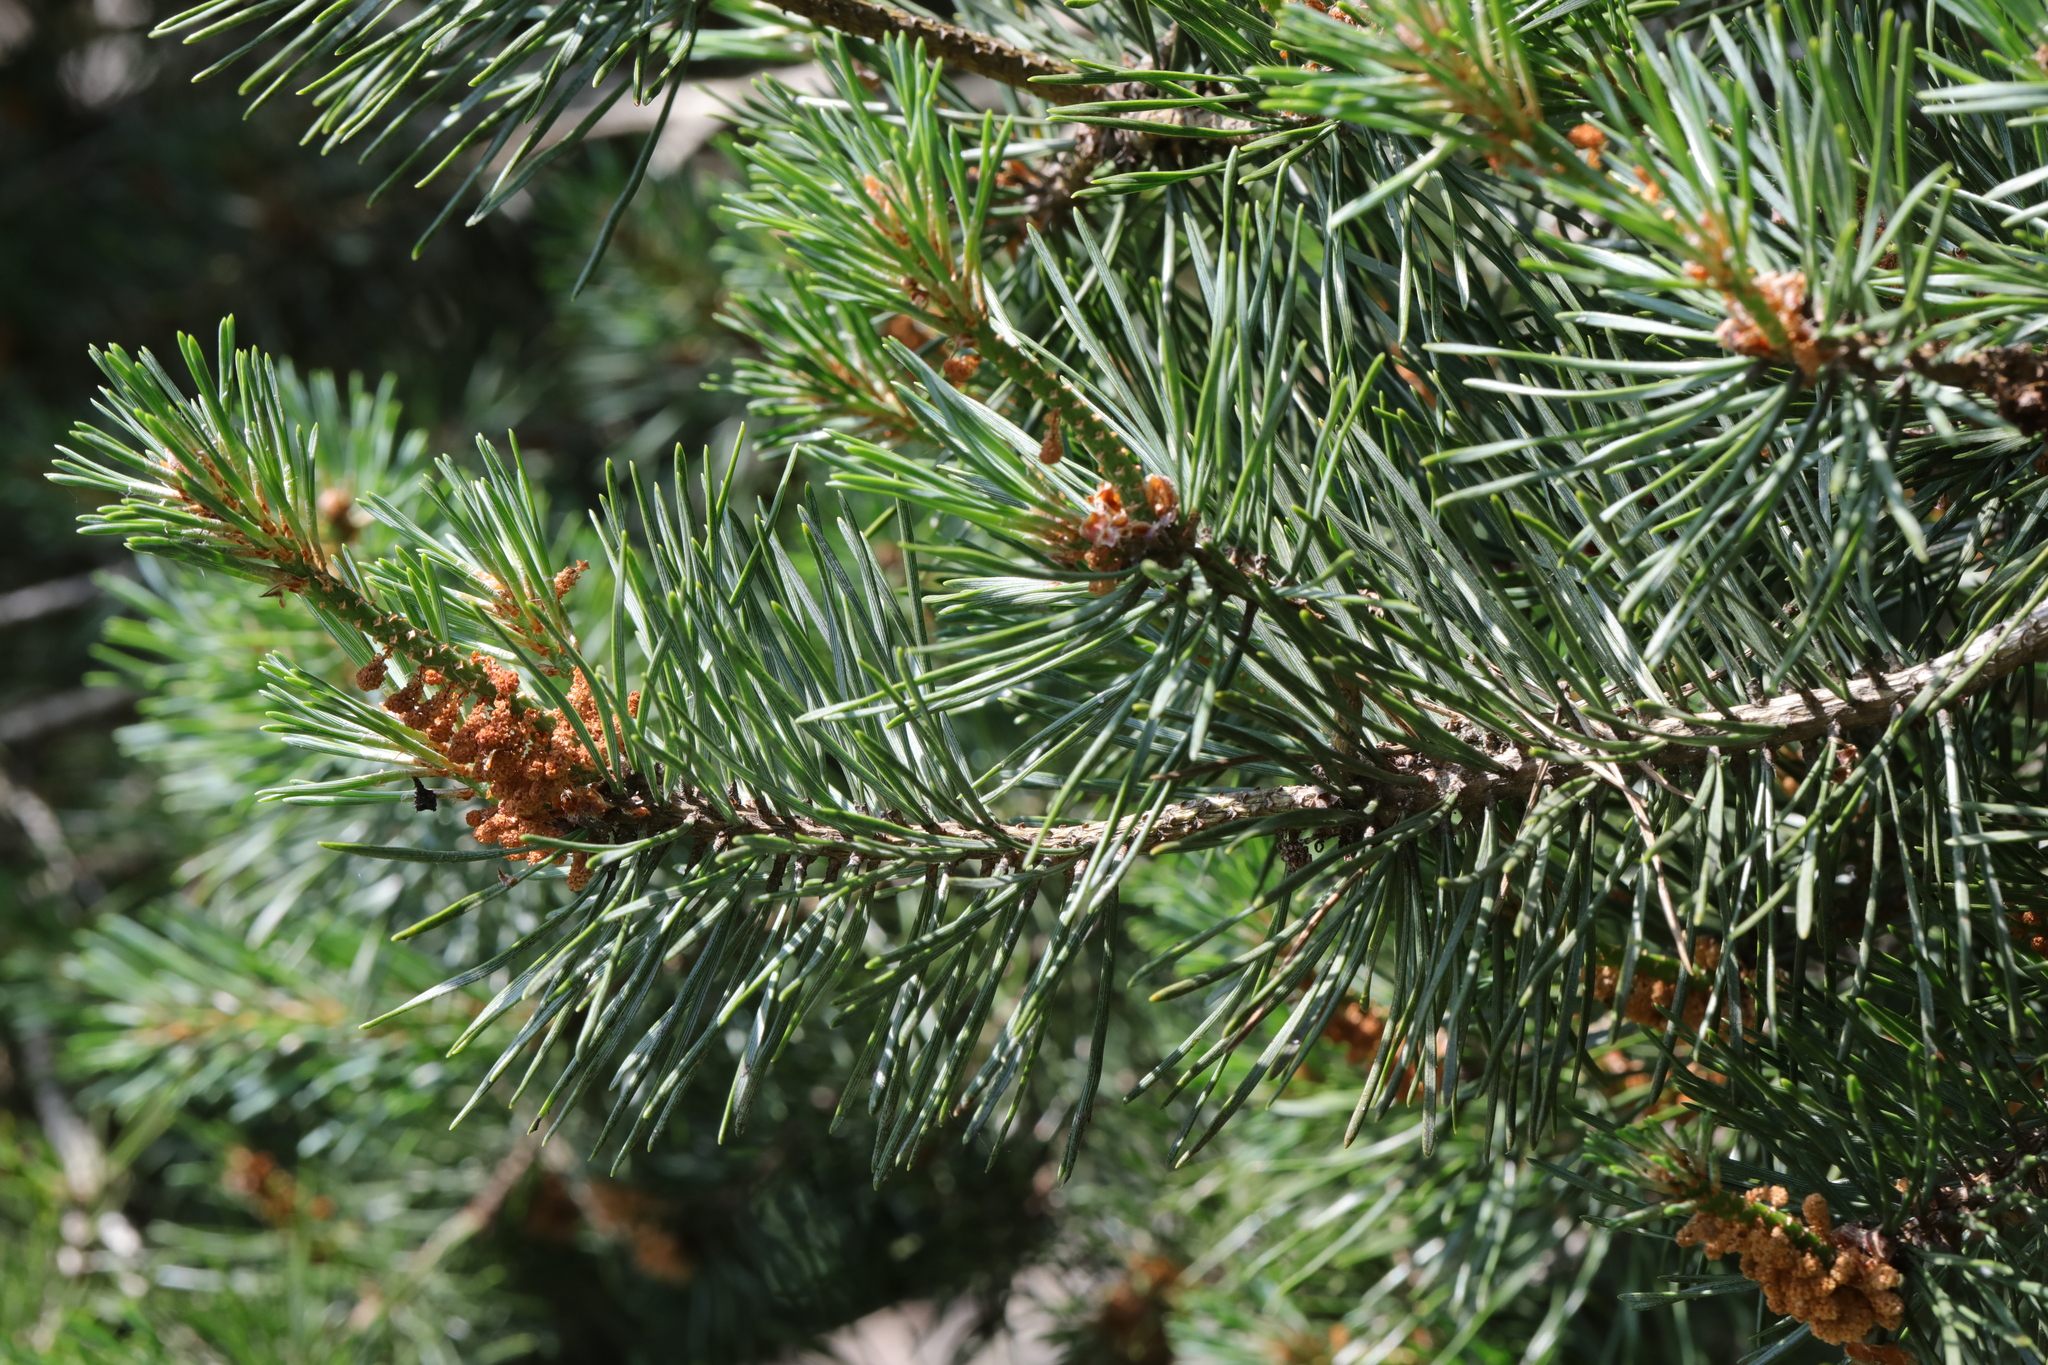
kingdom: Plantae
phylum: Tracheophyta
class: Pinopsida
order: Pinales
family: Pinaceae
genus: Pinus
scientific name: Pinus sylvestris
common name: Scots pine
